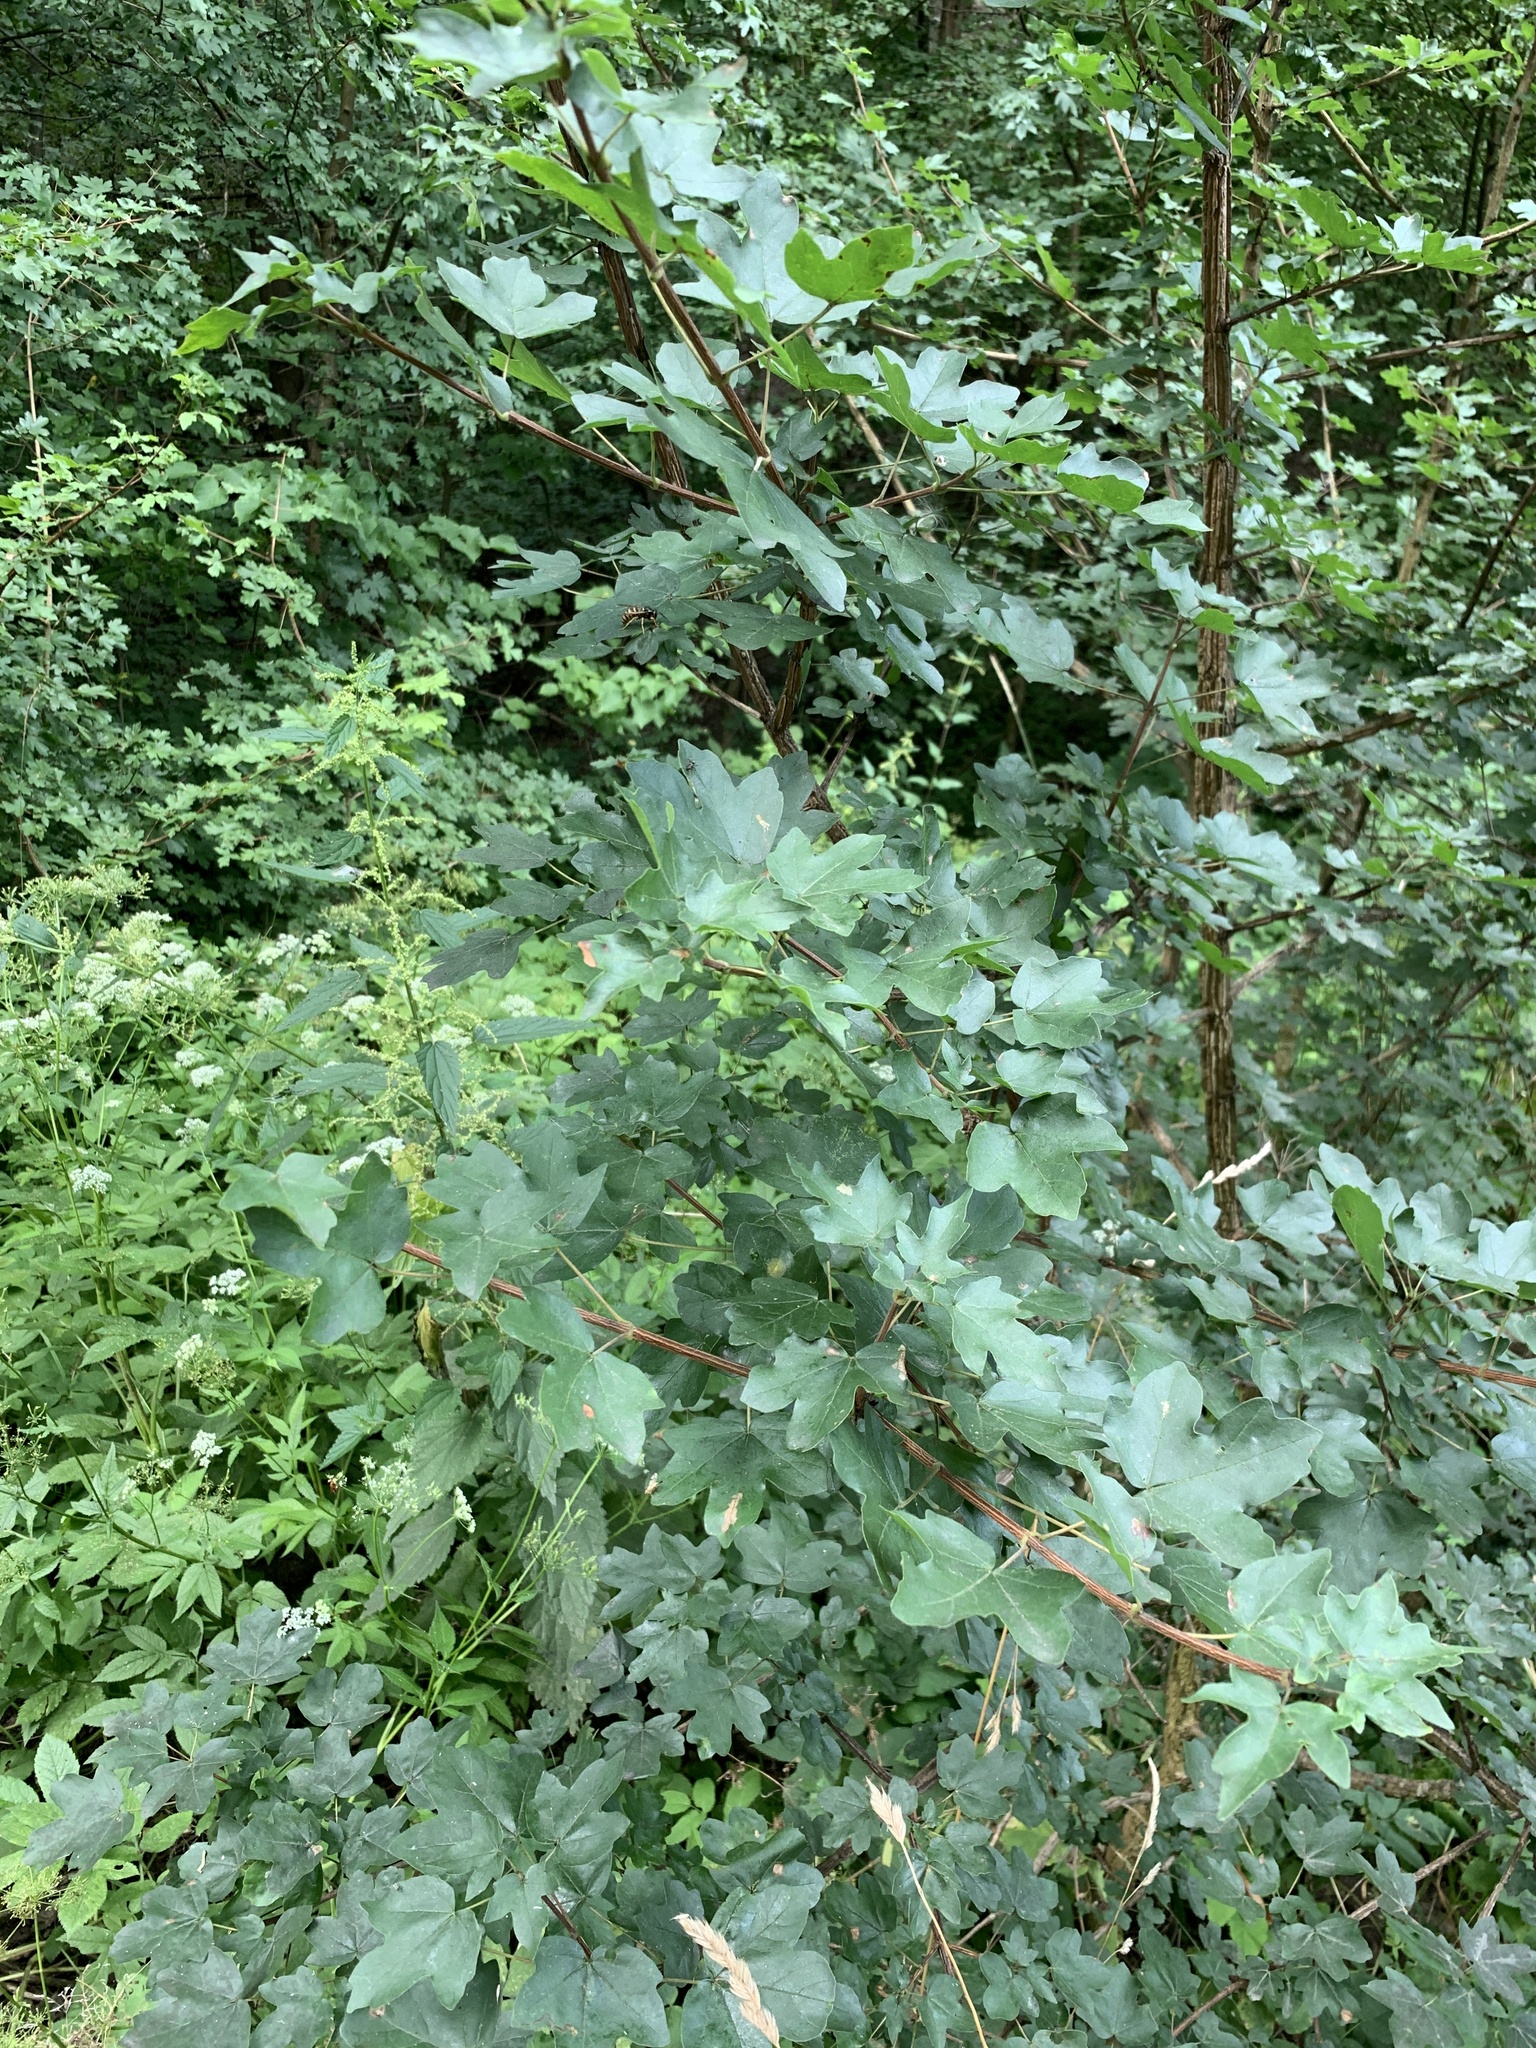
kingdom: Plantae
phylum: Tracheophyta
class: Magnoliopsida
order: Sapindales
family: Sapindaceae
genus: Acer
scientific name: Acer campestre
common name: Field maple
